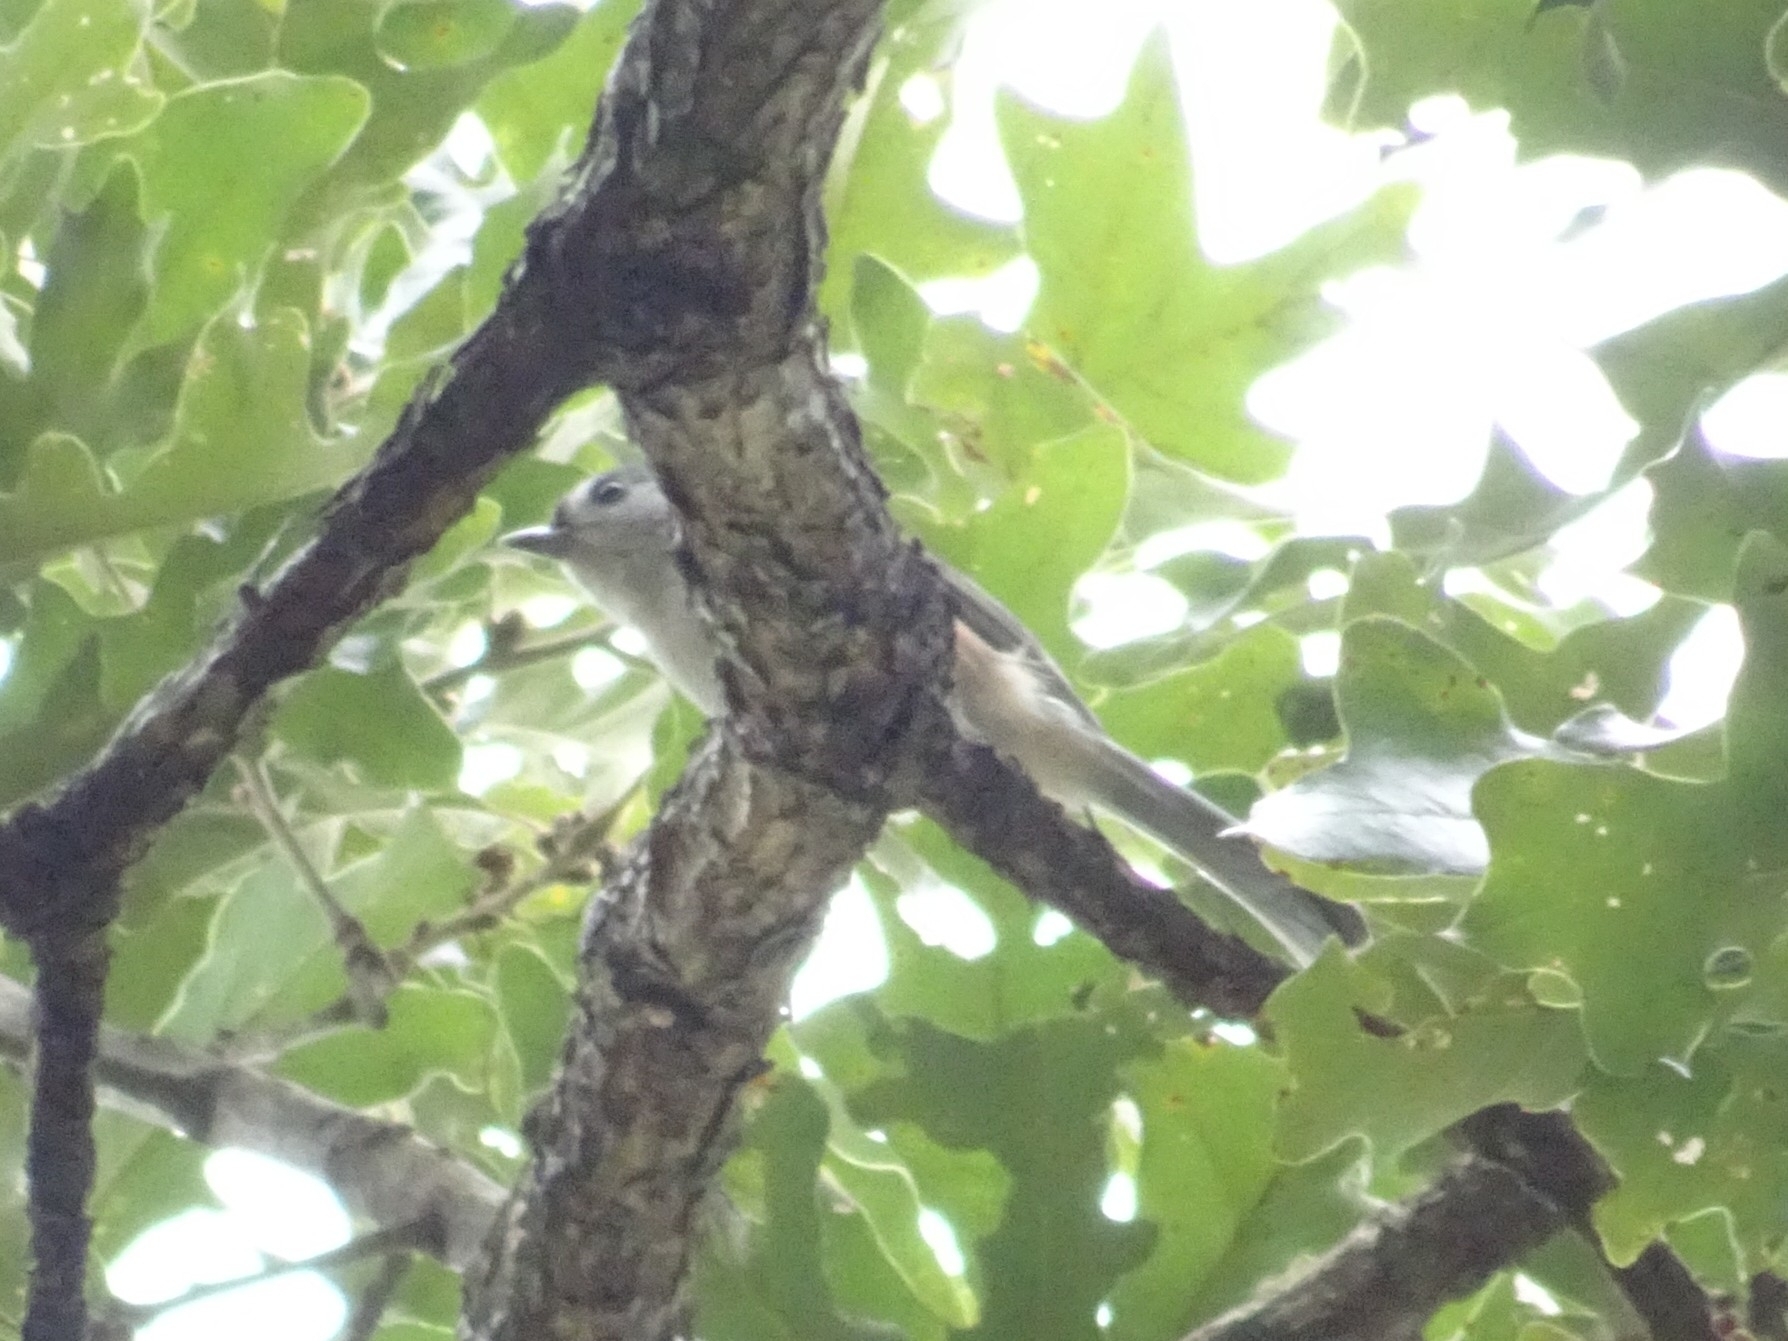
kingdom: Animalia
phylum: Chordata
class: Aves
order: Passeriformes
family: Paridae
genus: Baeolophus
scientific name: Baeolophus bicolor
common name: Tufted titmouse
